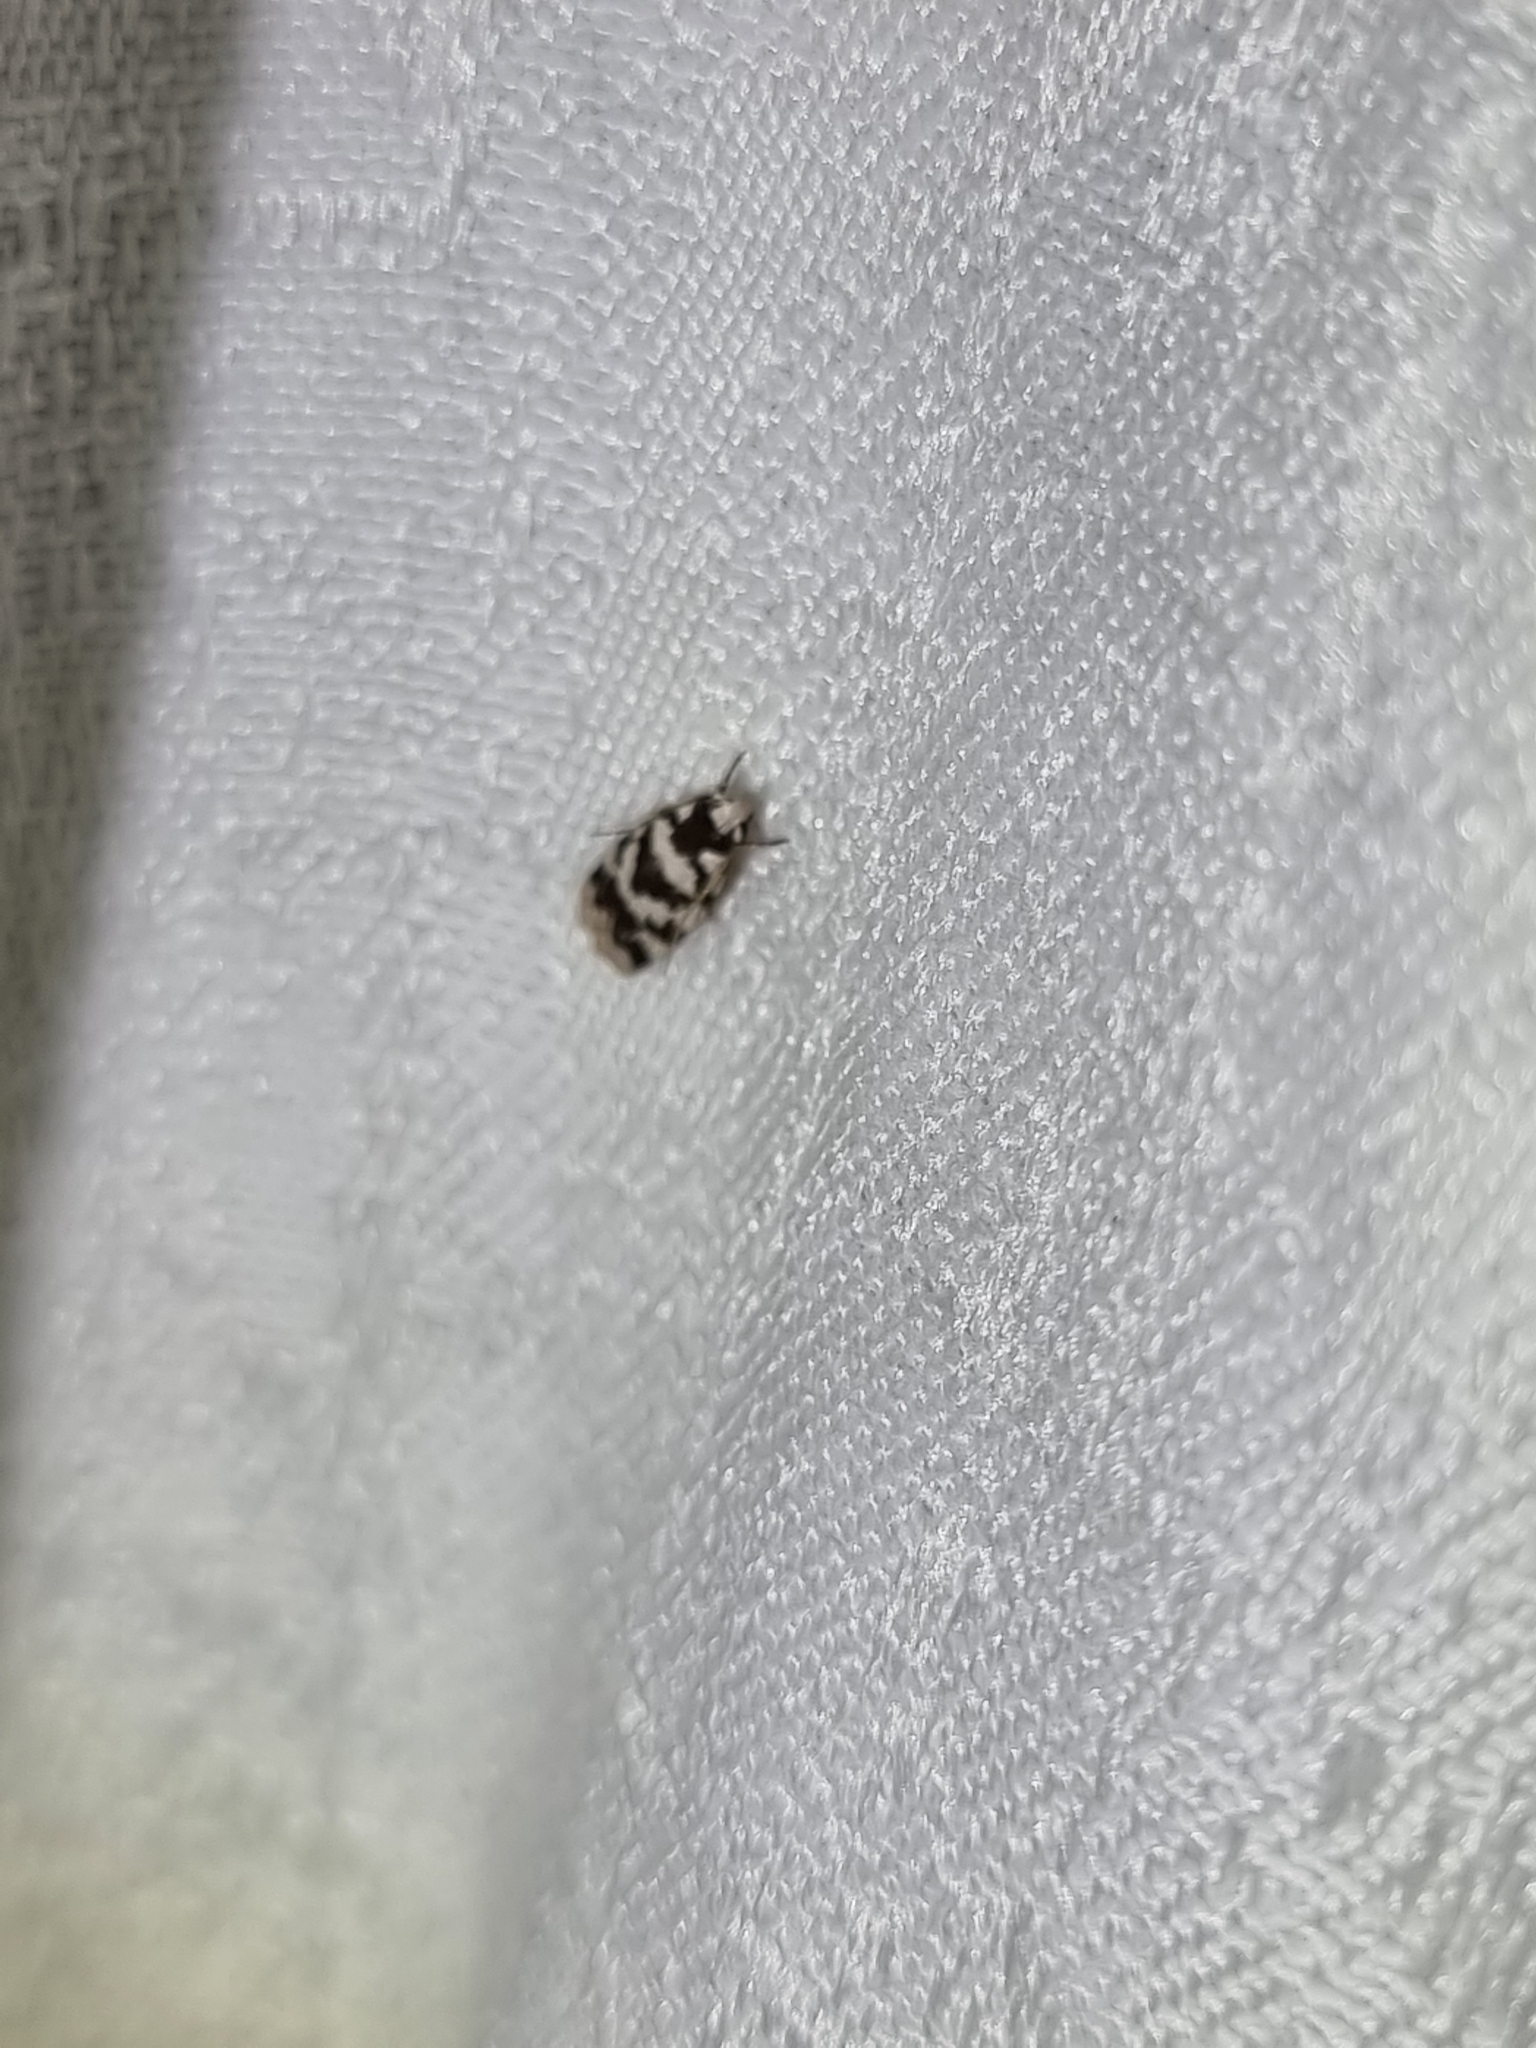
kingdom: Animalia
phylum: Arthropoda
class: Insecta
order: Lepidoptera
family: Oecophoridae
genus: Barea
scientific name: Barea leucocephala
